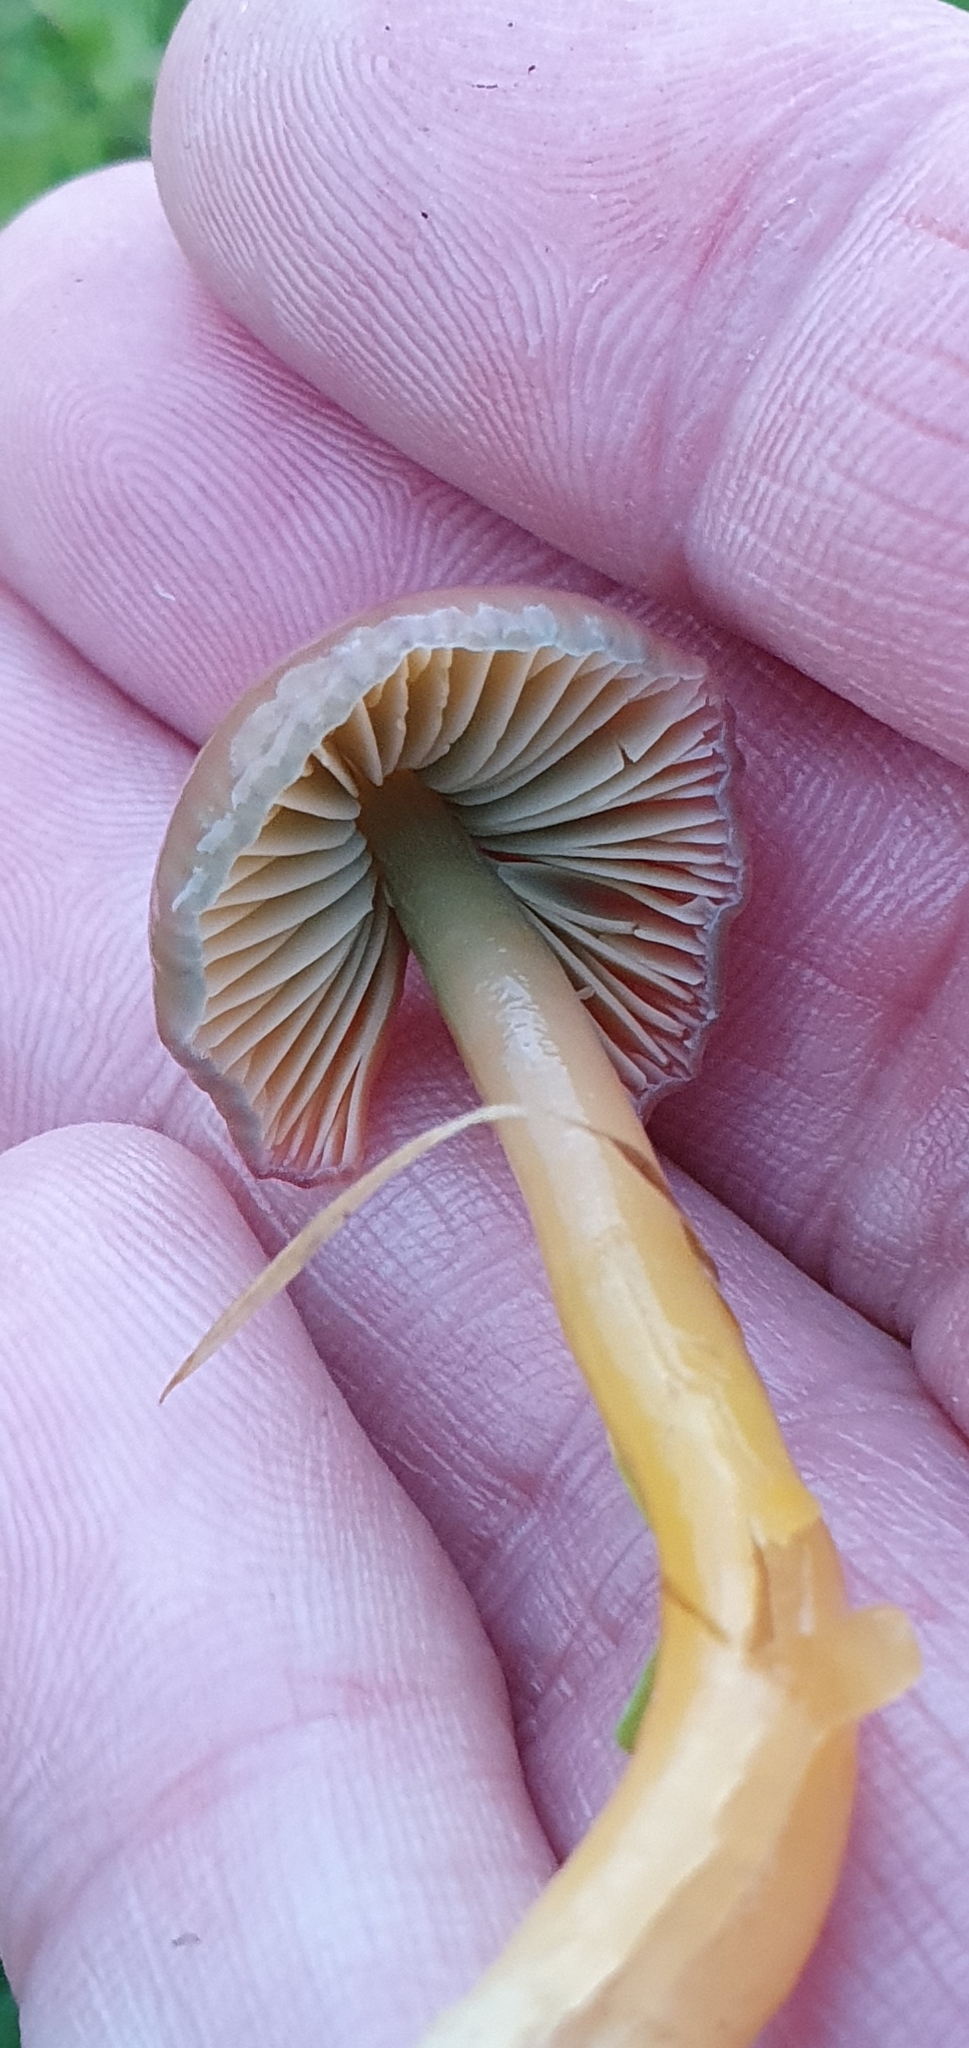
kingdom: Fungi
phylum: Basidiomycota
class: Agaricomycetes
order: Agaricales
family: Hygrophoraceae
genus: Gliophorus
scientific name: Gliophorus psittacinus
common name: Parrot wax-cap
